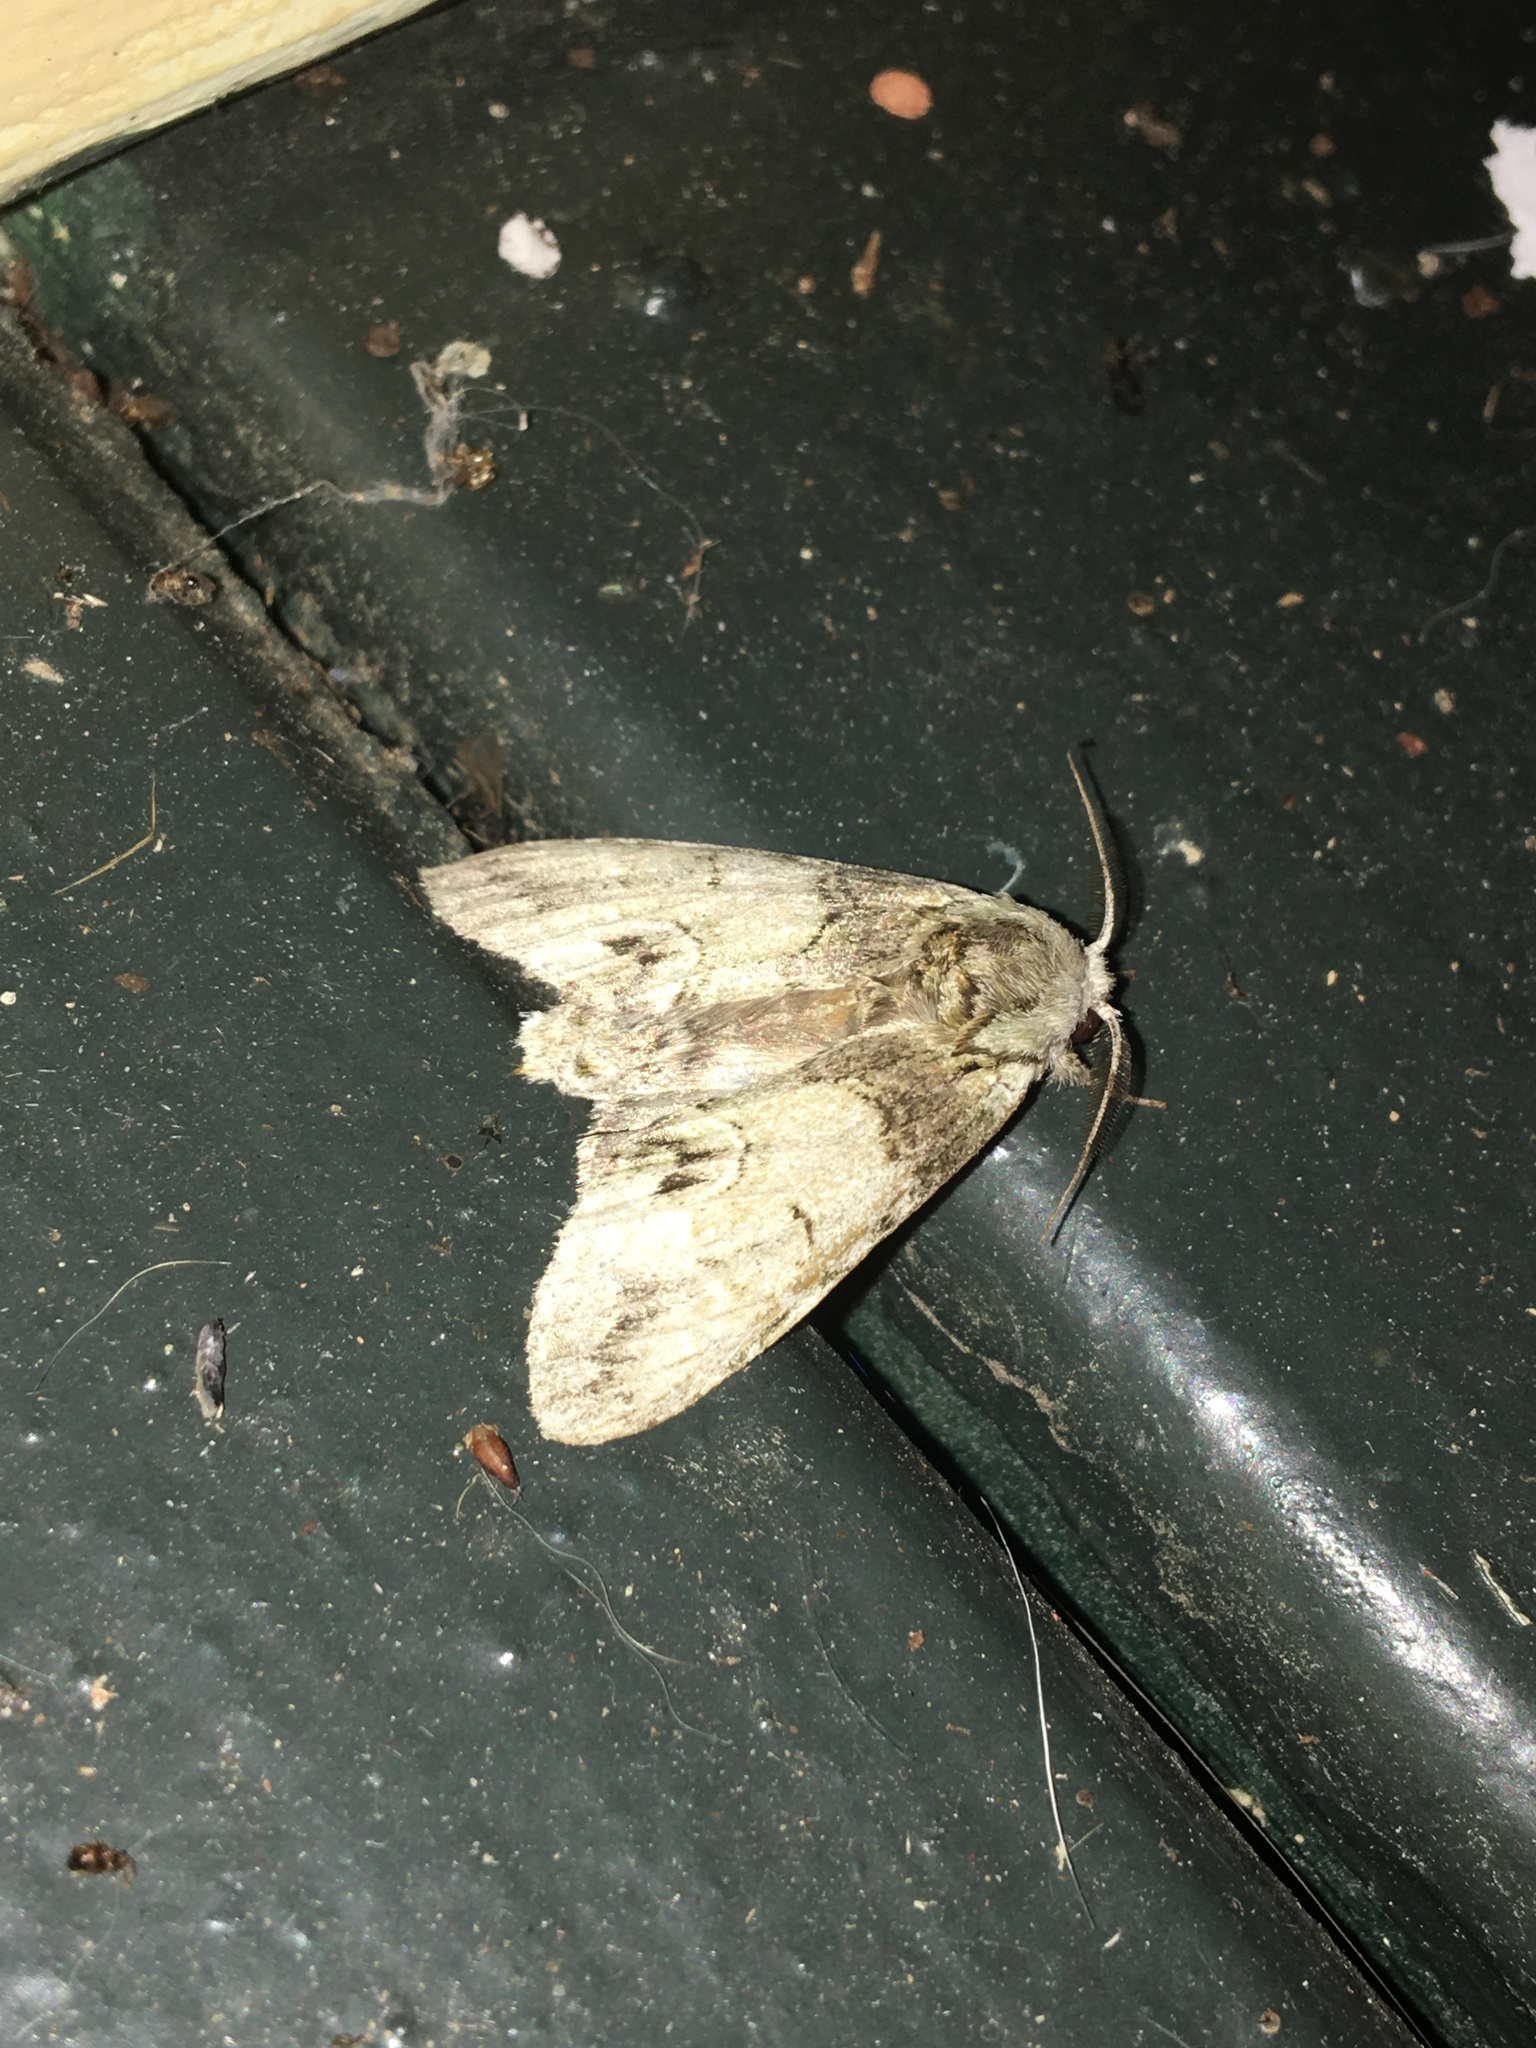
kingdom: Animalia
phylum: Arthropoda
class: Insecta
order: Lepidoptera
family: Notodontidae
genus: Macrurocampa
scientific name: Macrurocampa marthesia
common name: Mottled prominent
